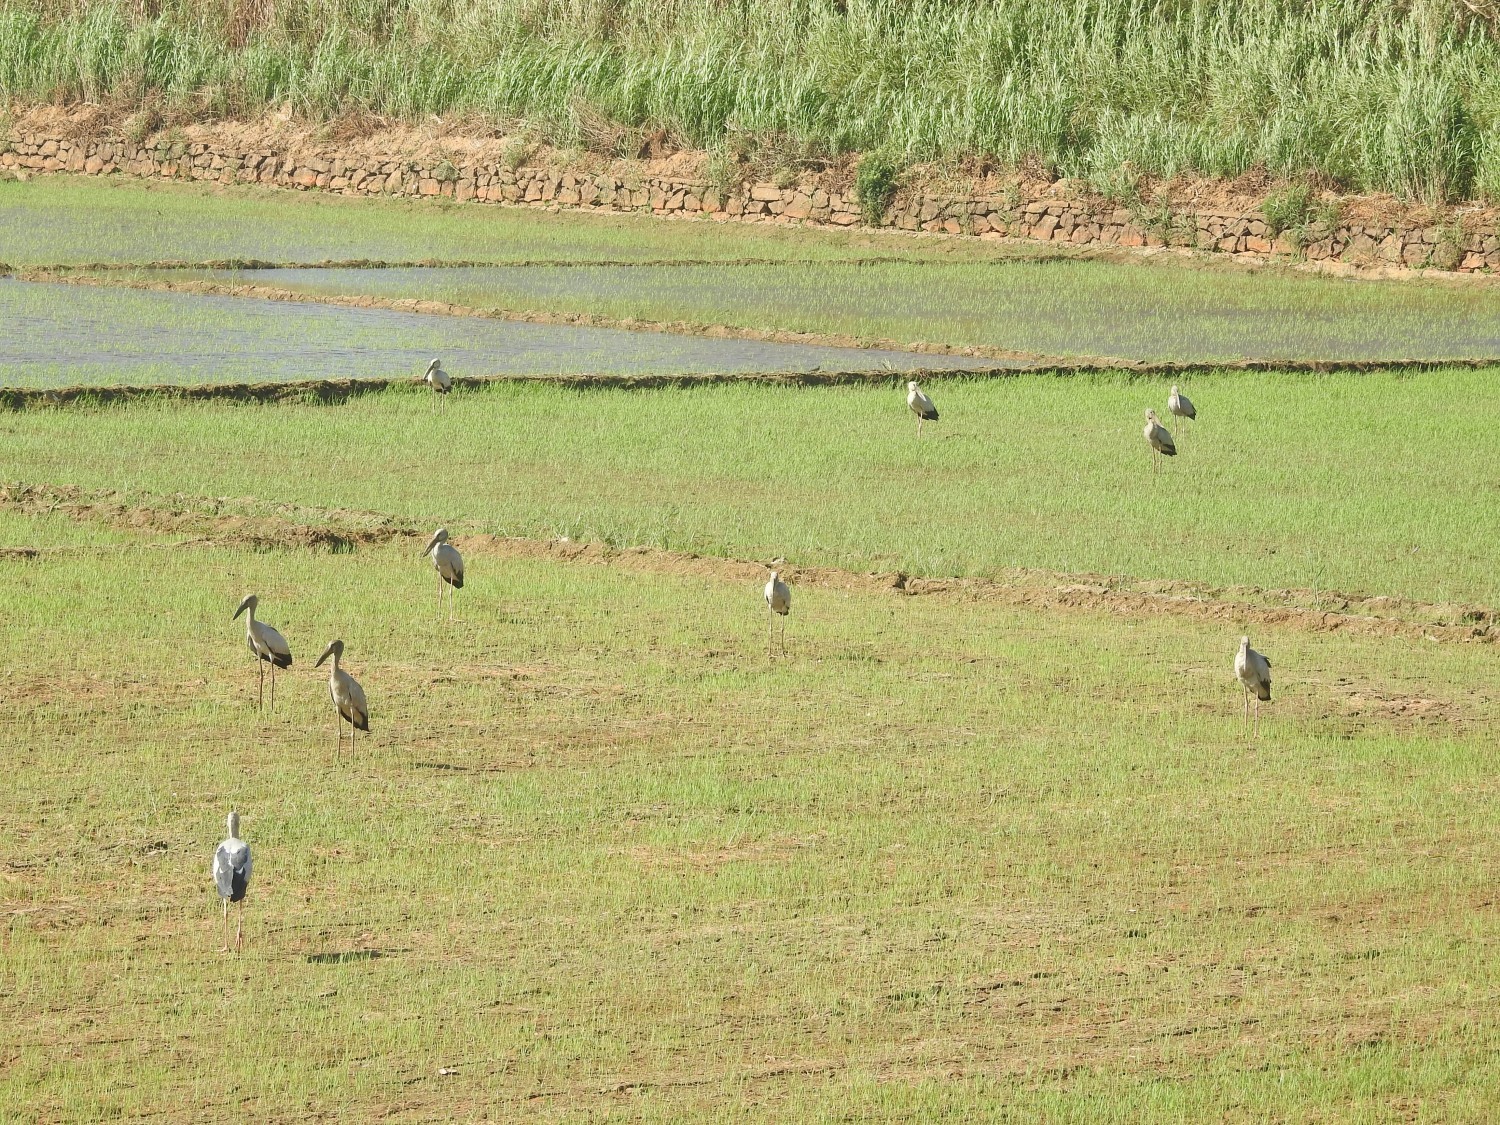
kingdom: Animalia
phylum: Chordata
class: Aves
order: Ciconiiformes
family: Ciconiidae
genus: Anastomus
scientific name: Anastomus oscitans
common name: Asian openbill
